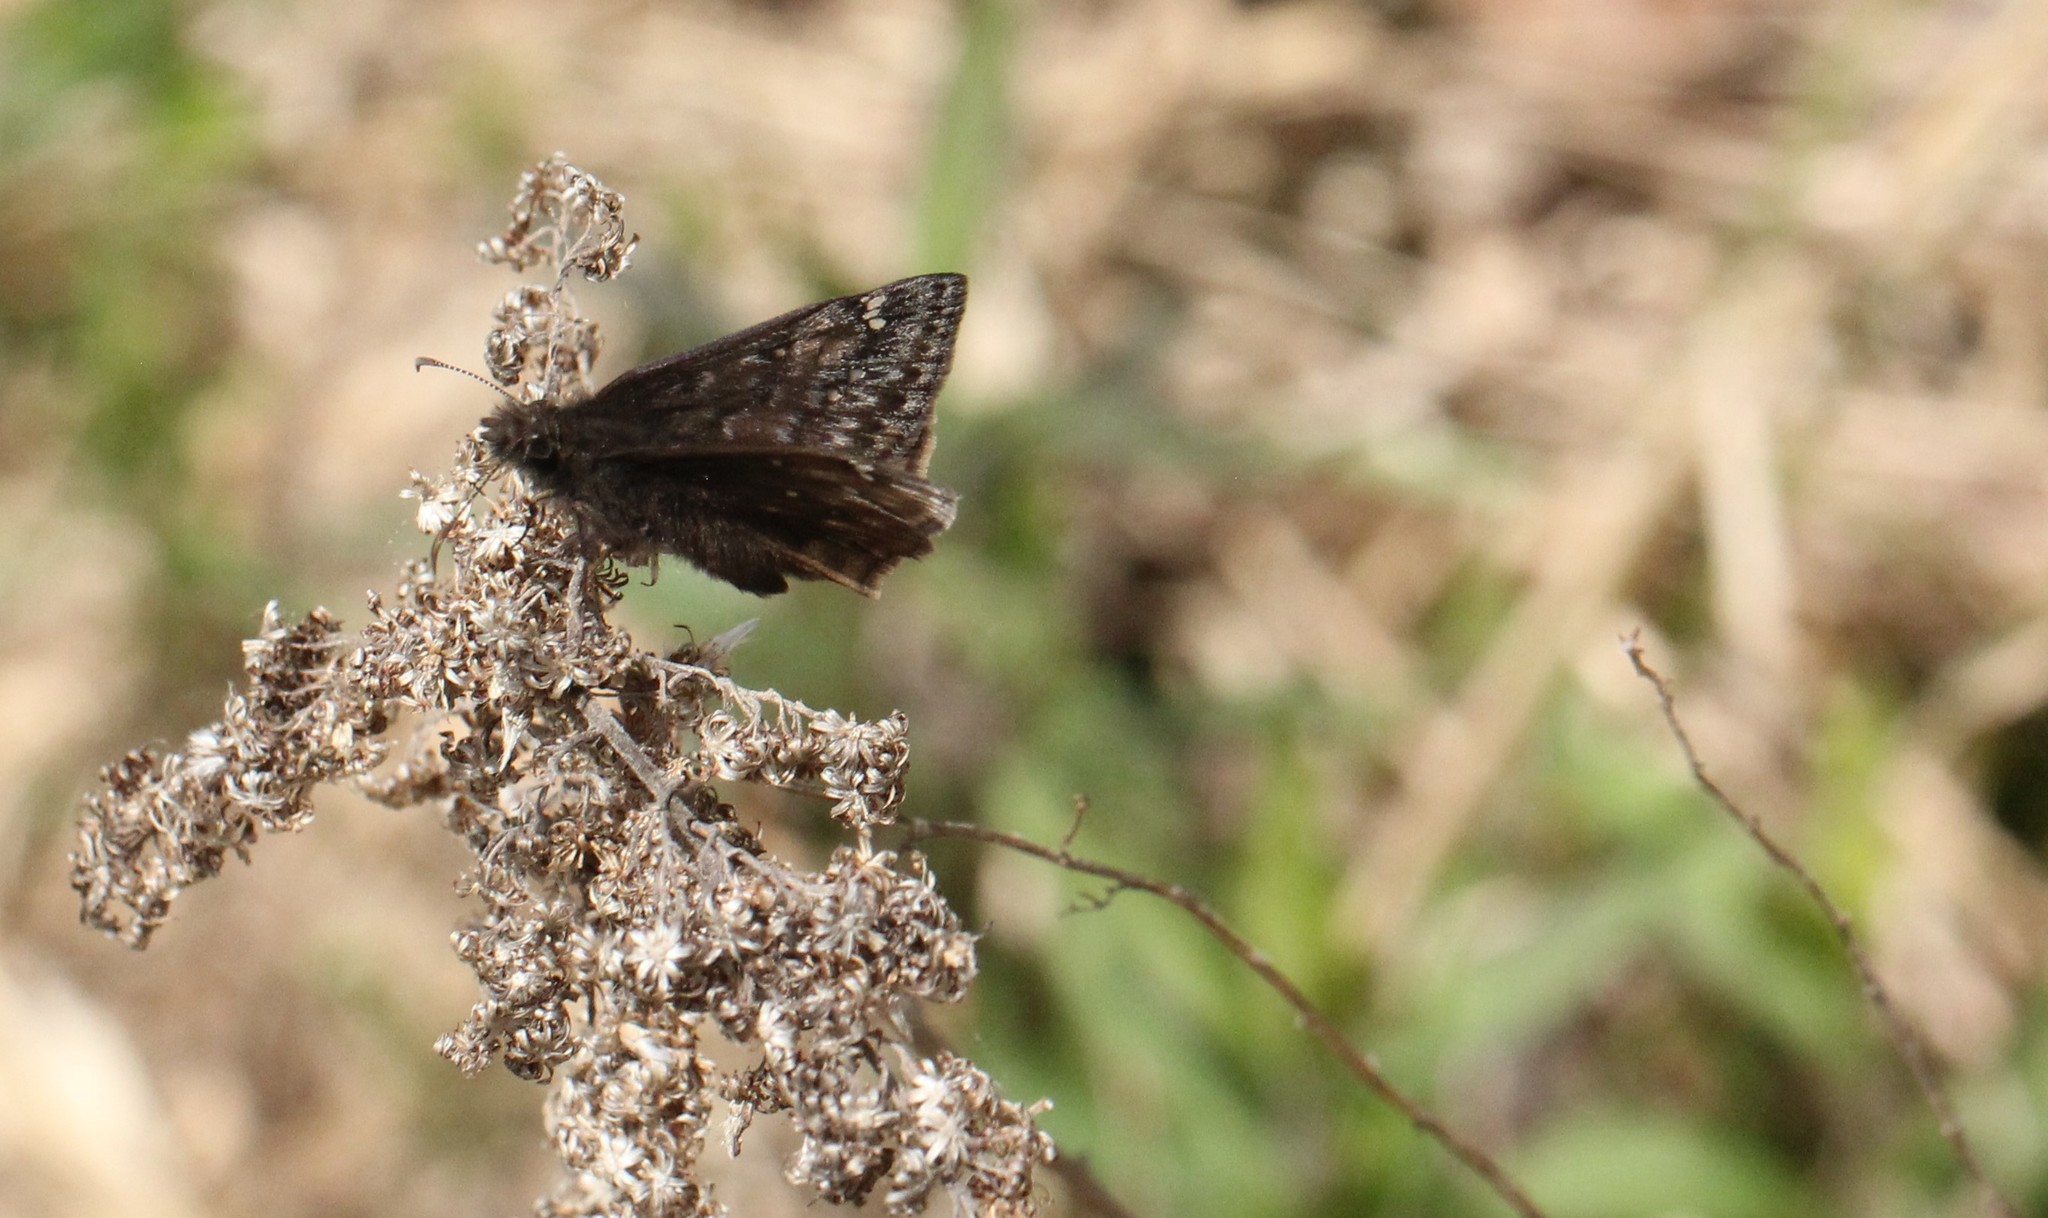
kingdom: Animalia
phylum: Arthropoda
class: Insecta
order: Lepidoptera
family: Hesperiidae
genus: Erynnis
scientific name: Erynnis juvenalis
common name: Juvenal's duskywing
